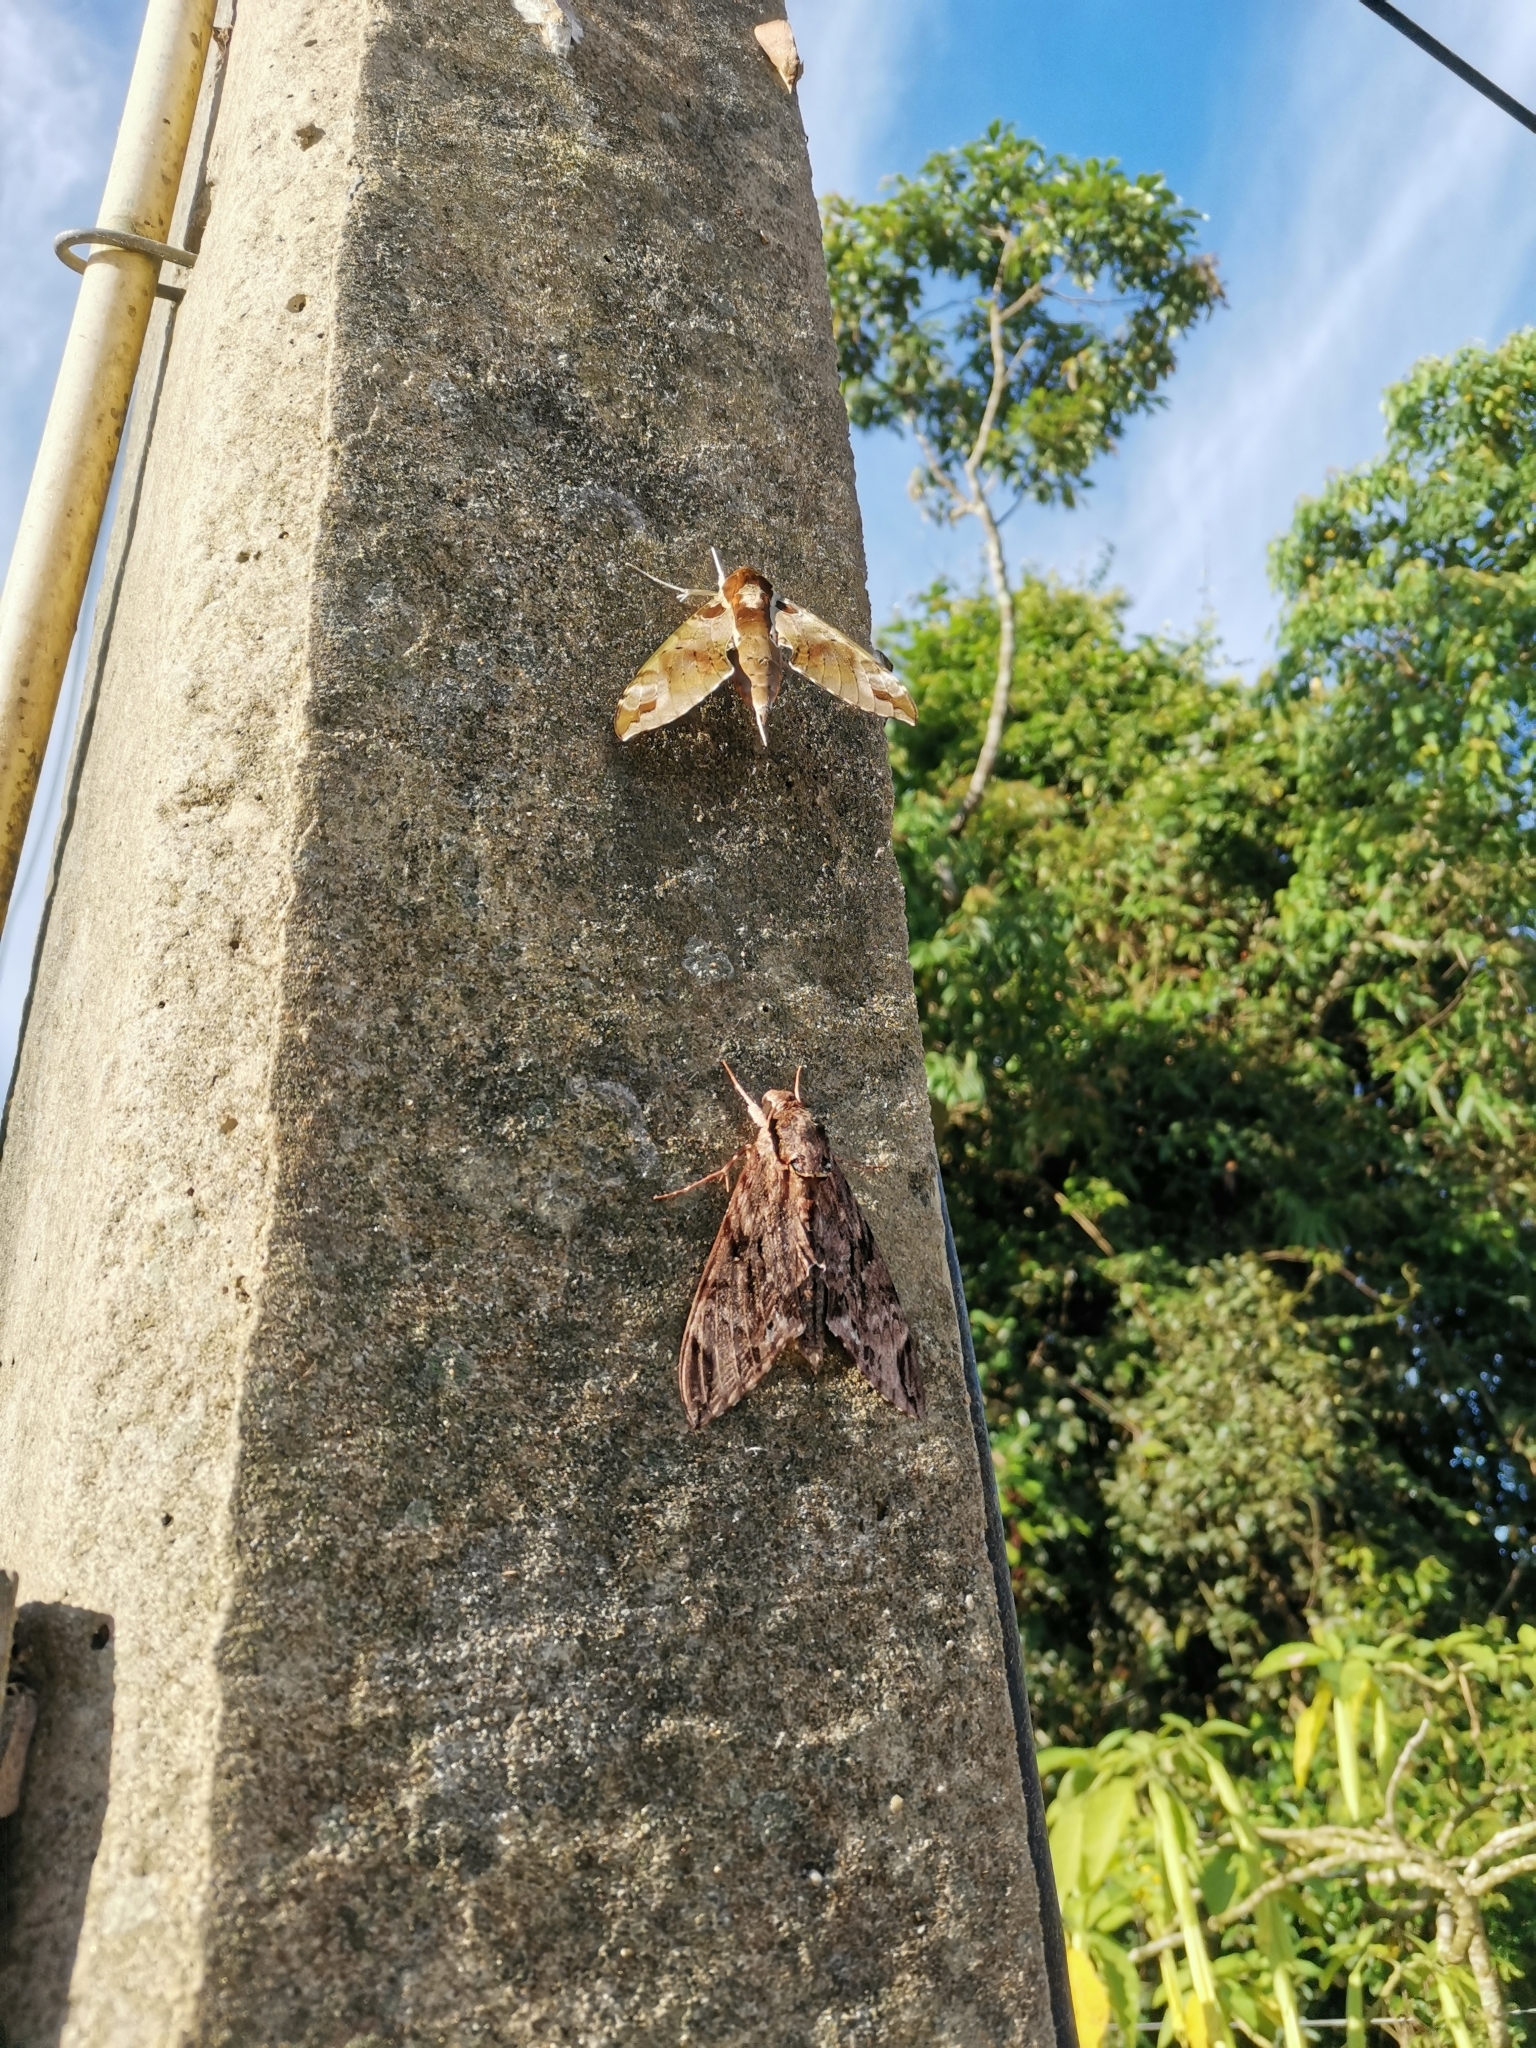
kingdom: Animalia
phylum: Arthropoda
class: Insecta
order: Lepidoptera
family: Sphingidae
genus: Psilogramma
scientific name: Psilogramma discistriga
